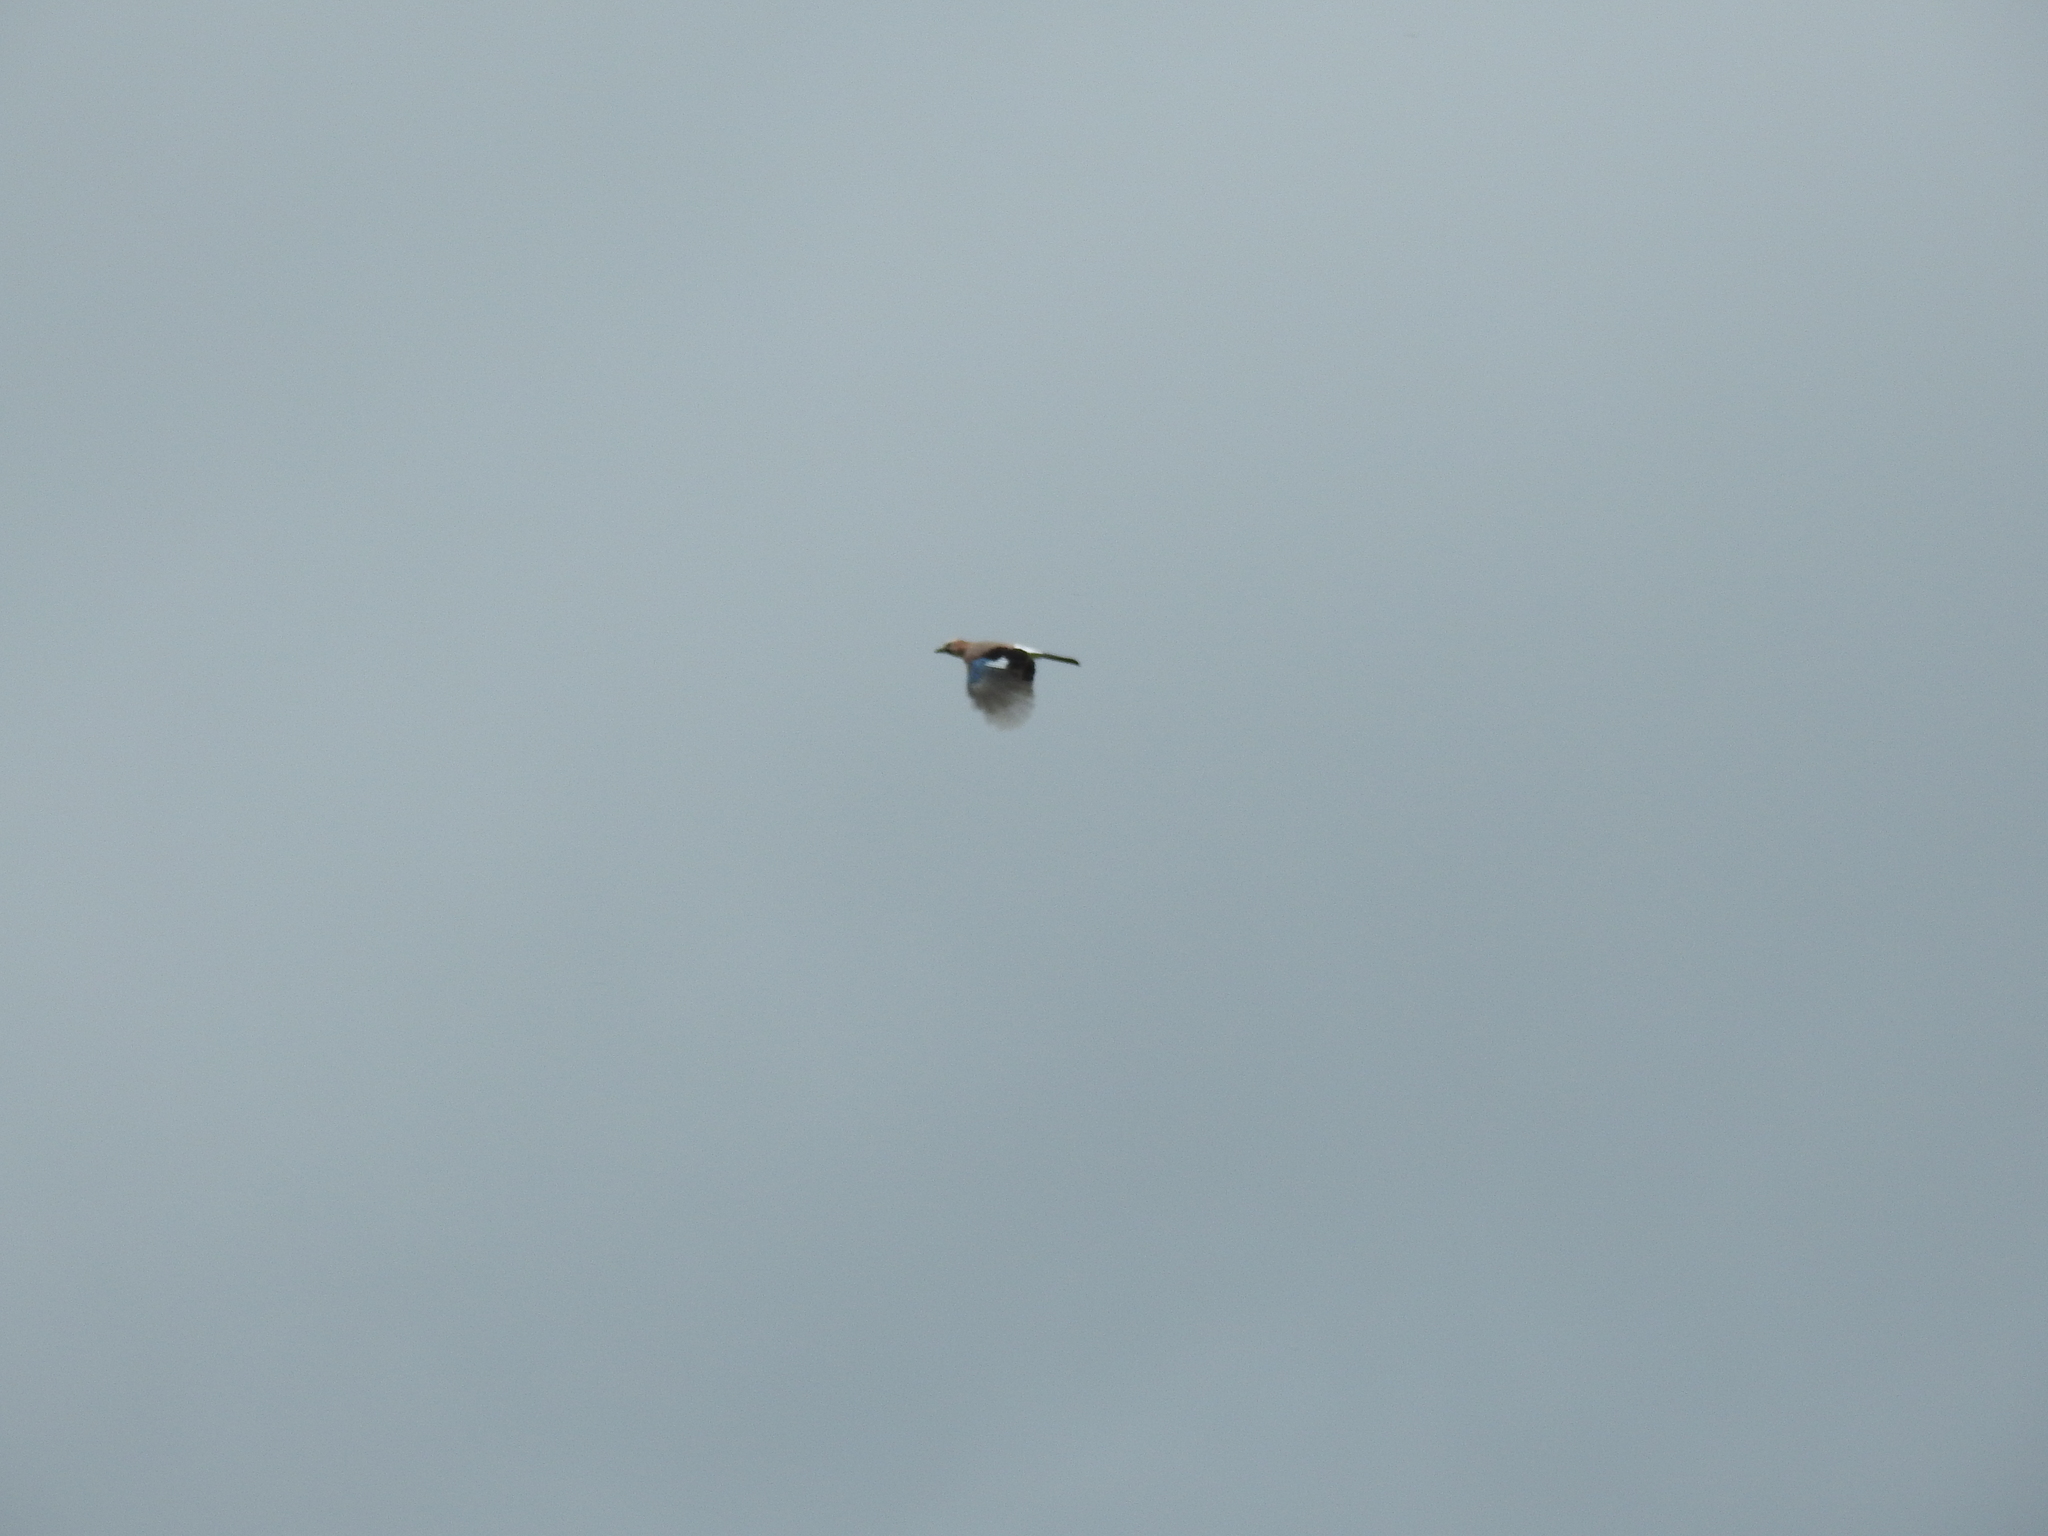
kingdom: Animalia
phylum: Chordata
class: Aves
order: Passeriformes
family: Corvidae
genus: Garrulus
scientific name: Garrulus glandarius
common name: Eurasian jay
